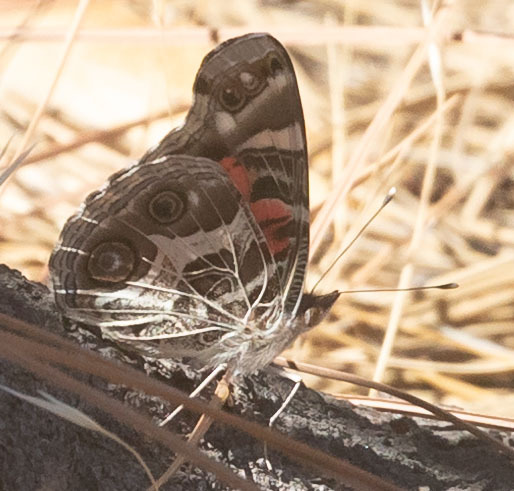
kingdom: Animalia
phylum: Arthropoda
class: Insecta
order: Lepidoptera
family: Nymphalidae
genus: Vanessa
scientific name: Vanessa virginiensis
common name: American lady
